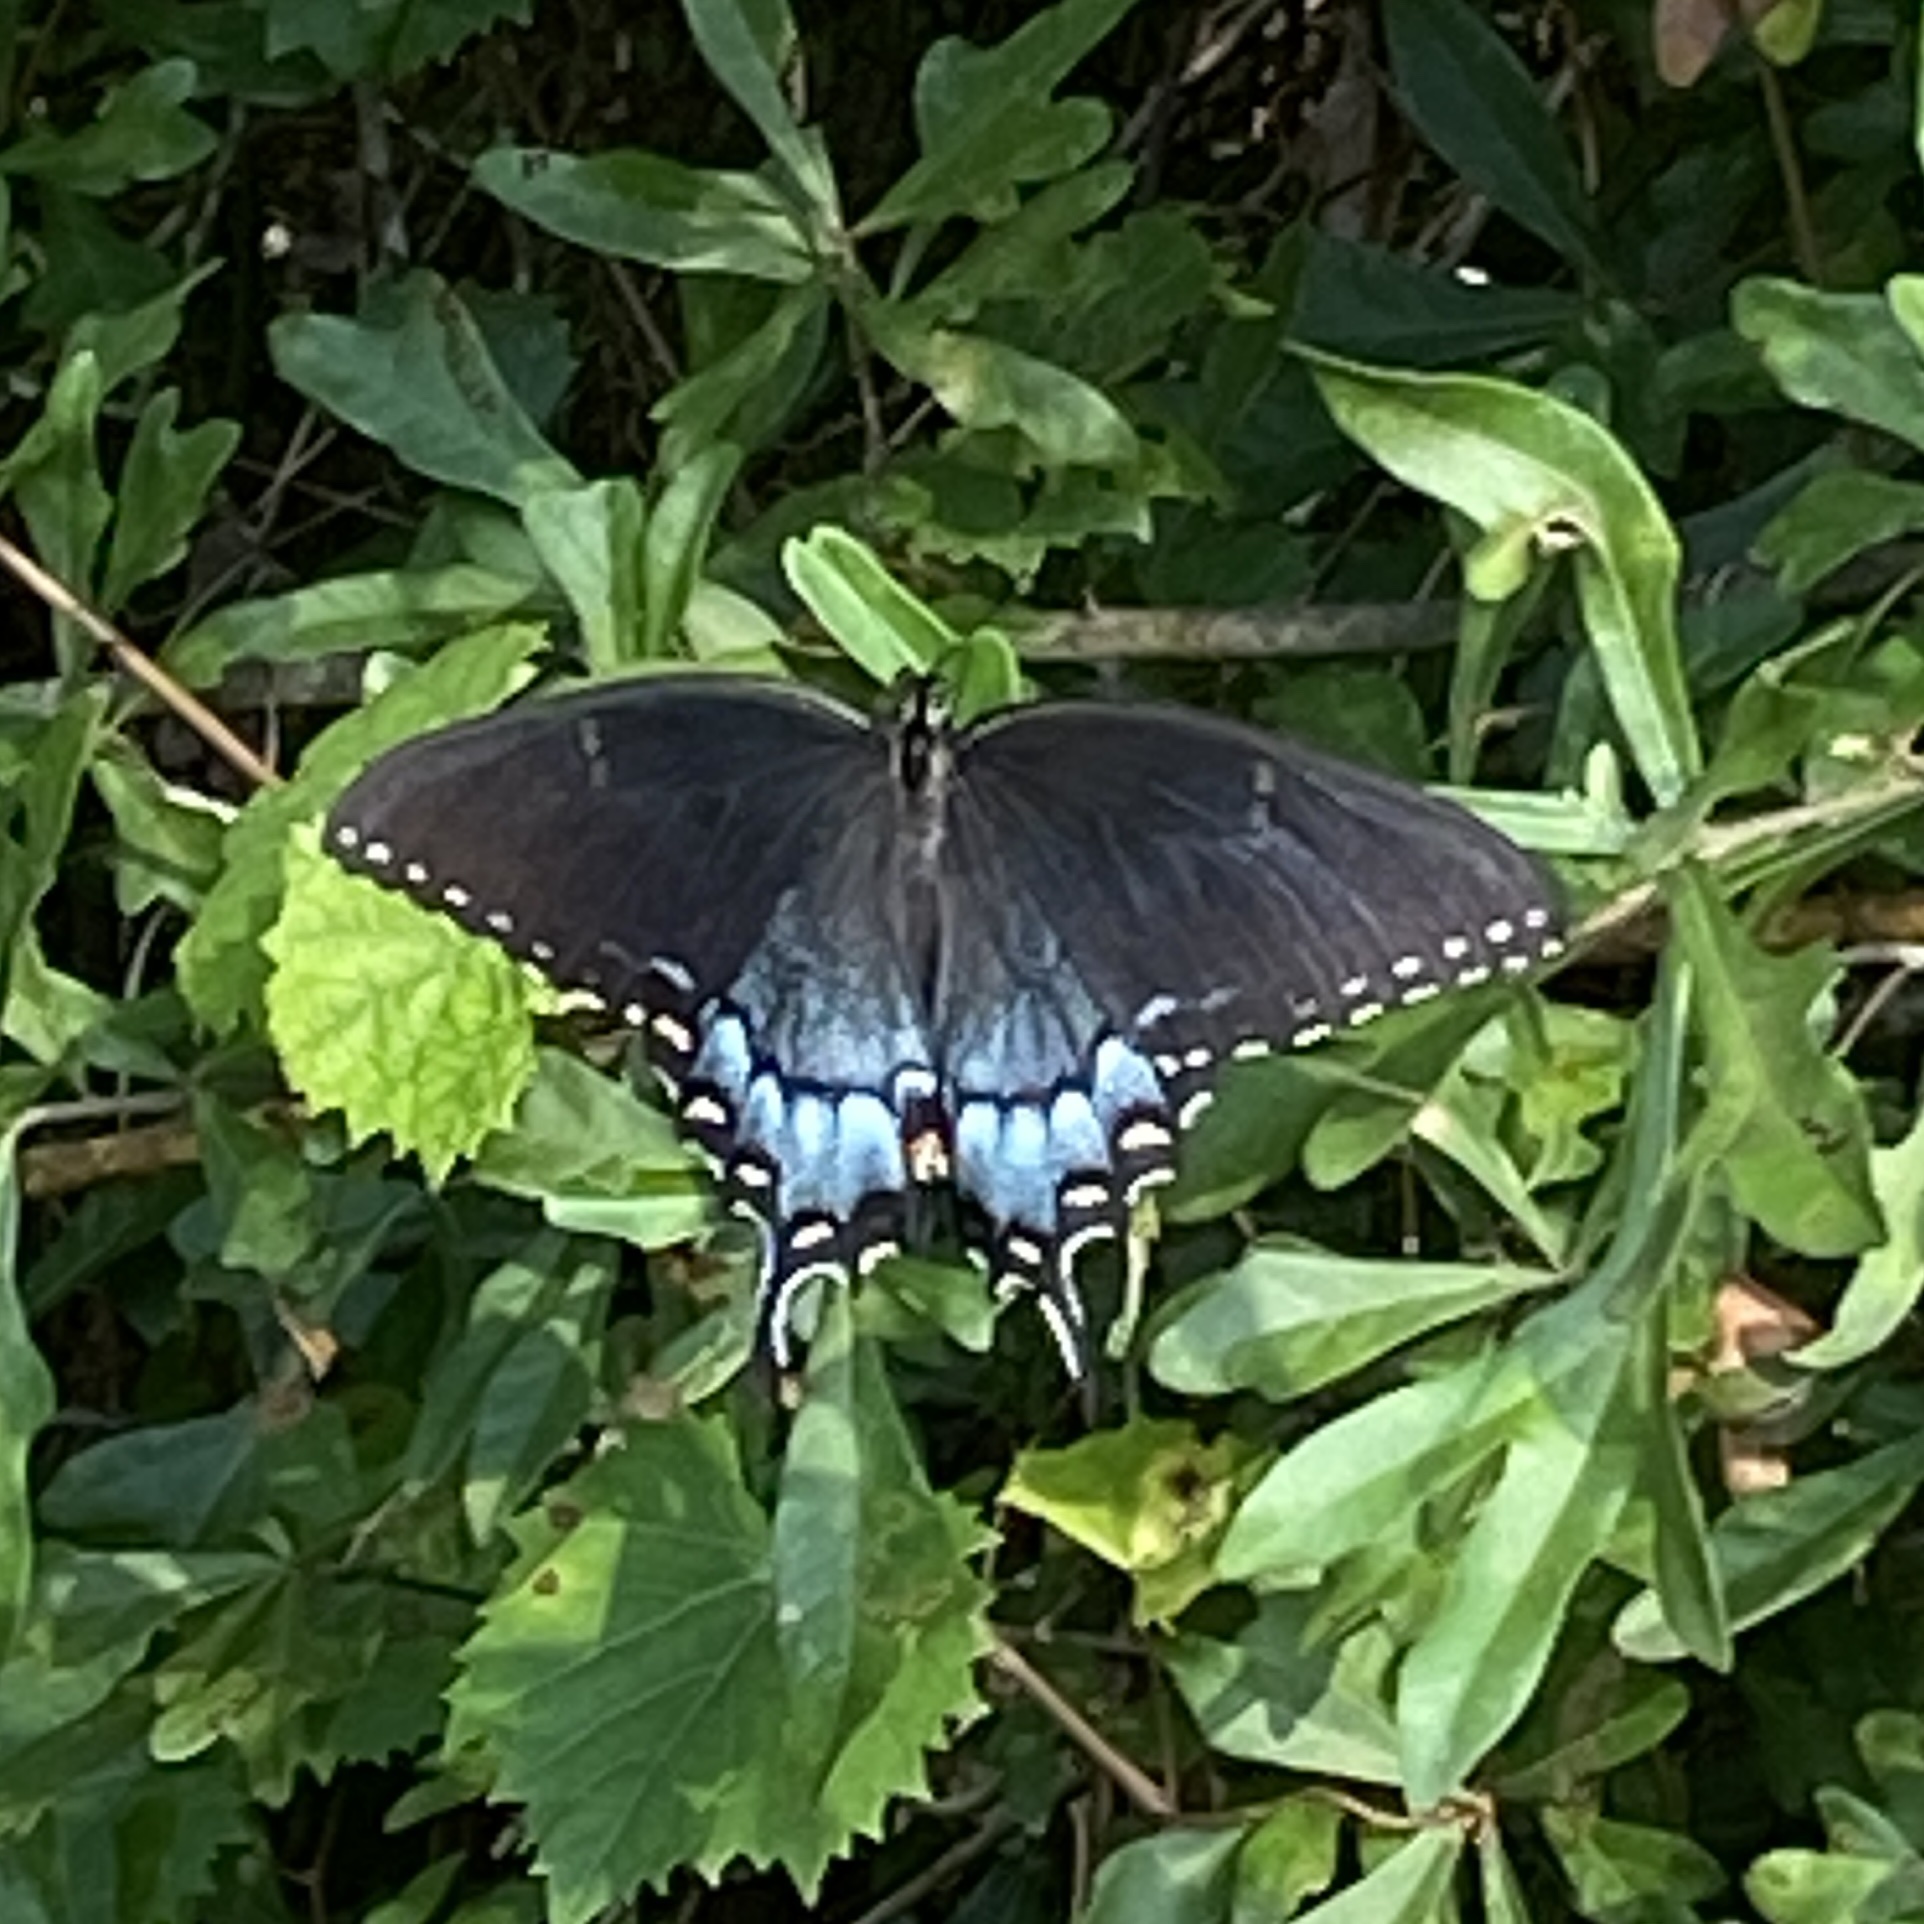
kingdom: Animalia
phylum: Arthropoda
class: Insecta
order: Lepidoptera
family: Papilionidae
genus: Papilio
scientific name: Papilio glaucus
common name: Tiger swallowtail
